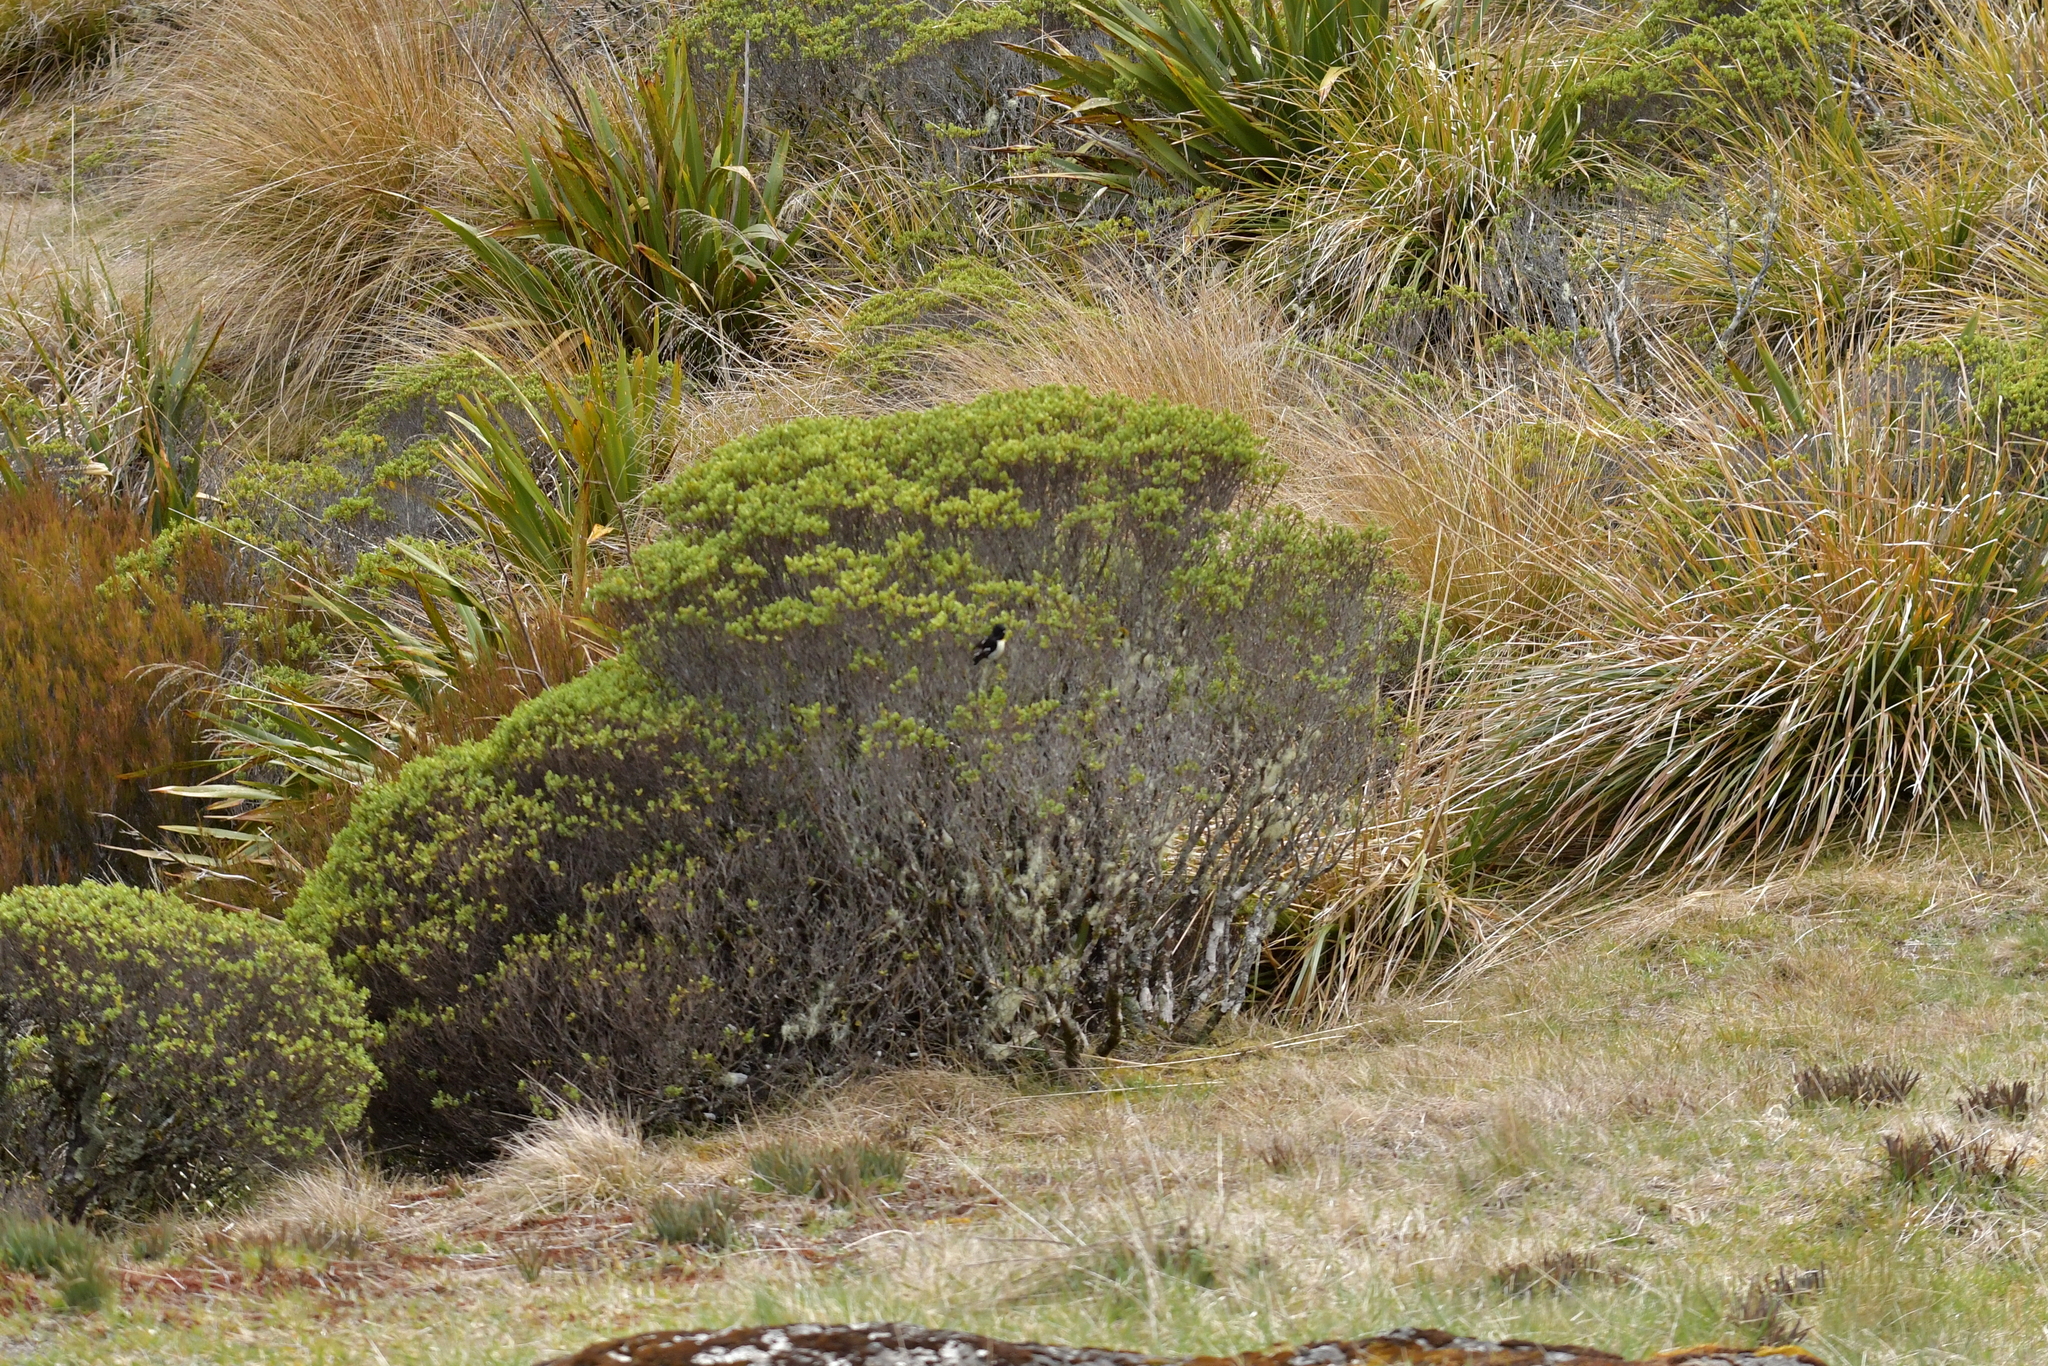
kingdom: Animalia
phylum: Chordata
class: Aves
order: Passeriformes
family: Petroicidae
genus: Petroica
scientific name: Petroica macrocephala
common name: Tomtit
